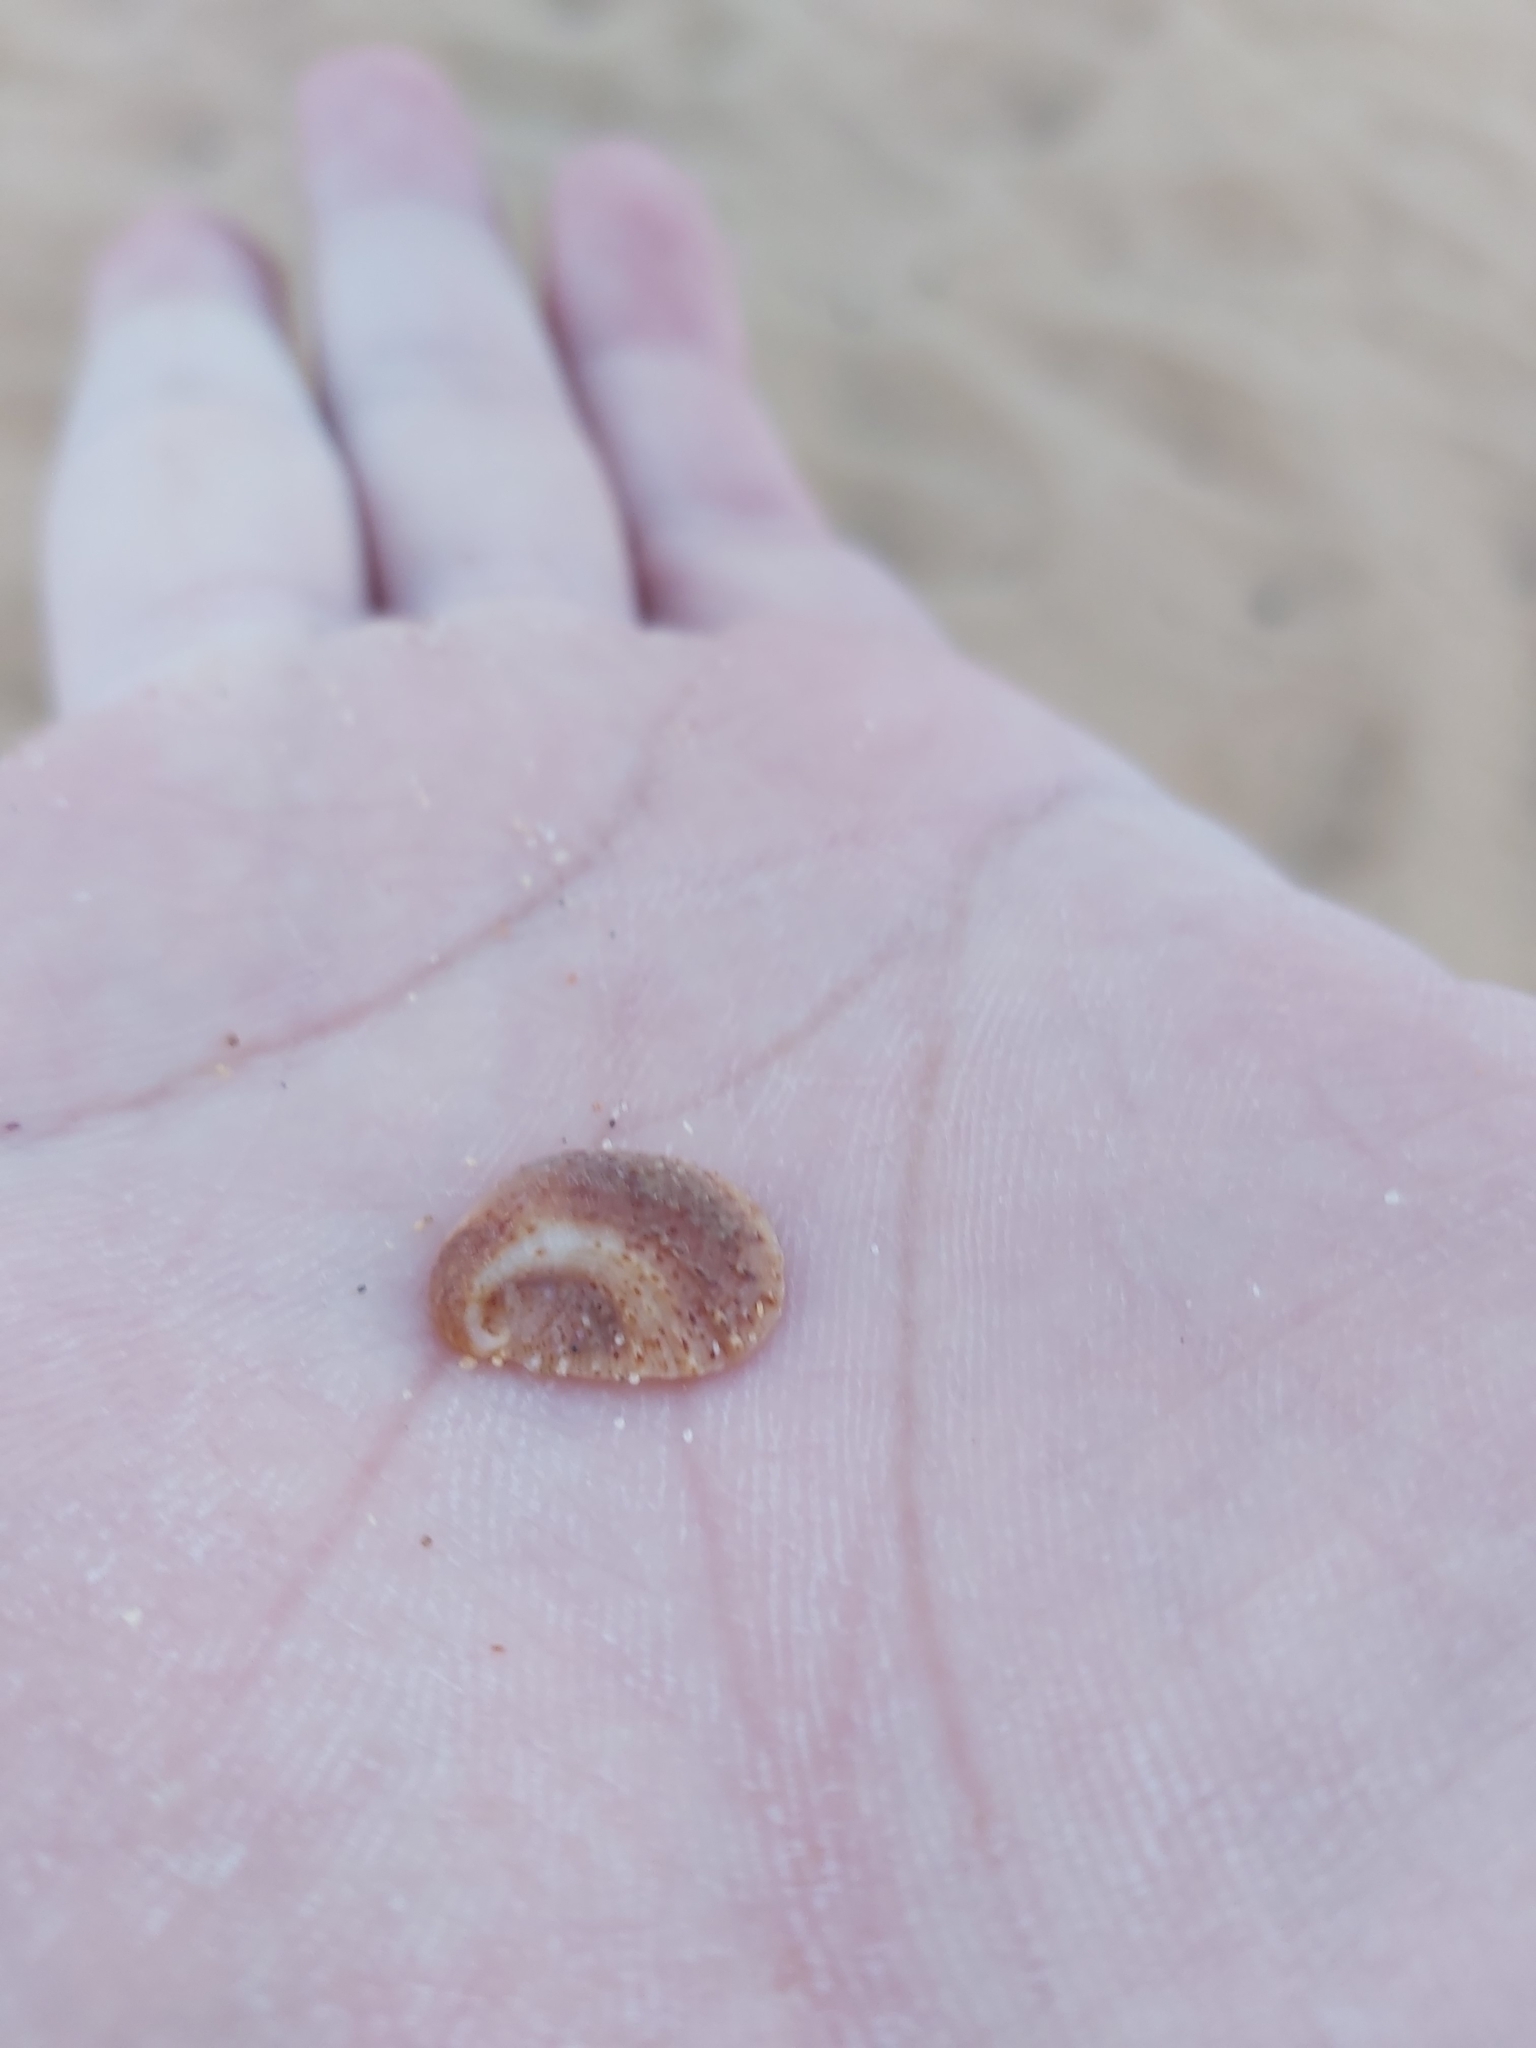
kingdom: Animalia
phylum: Mollusca
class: Gastropoda
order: Littorinimorpha
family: Calyptraeidae
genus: Bostrycapulus
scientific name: Bostrycapulus pritzkeri
